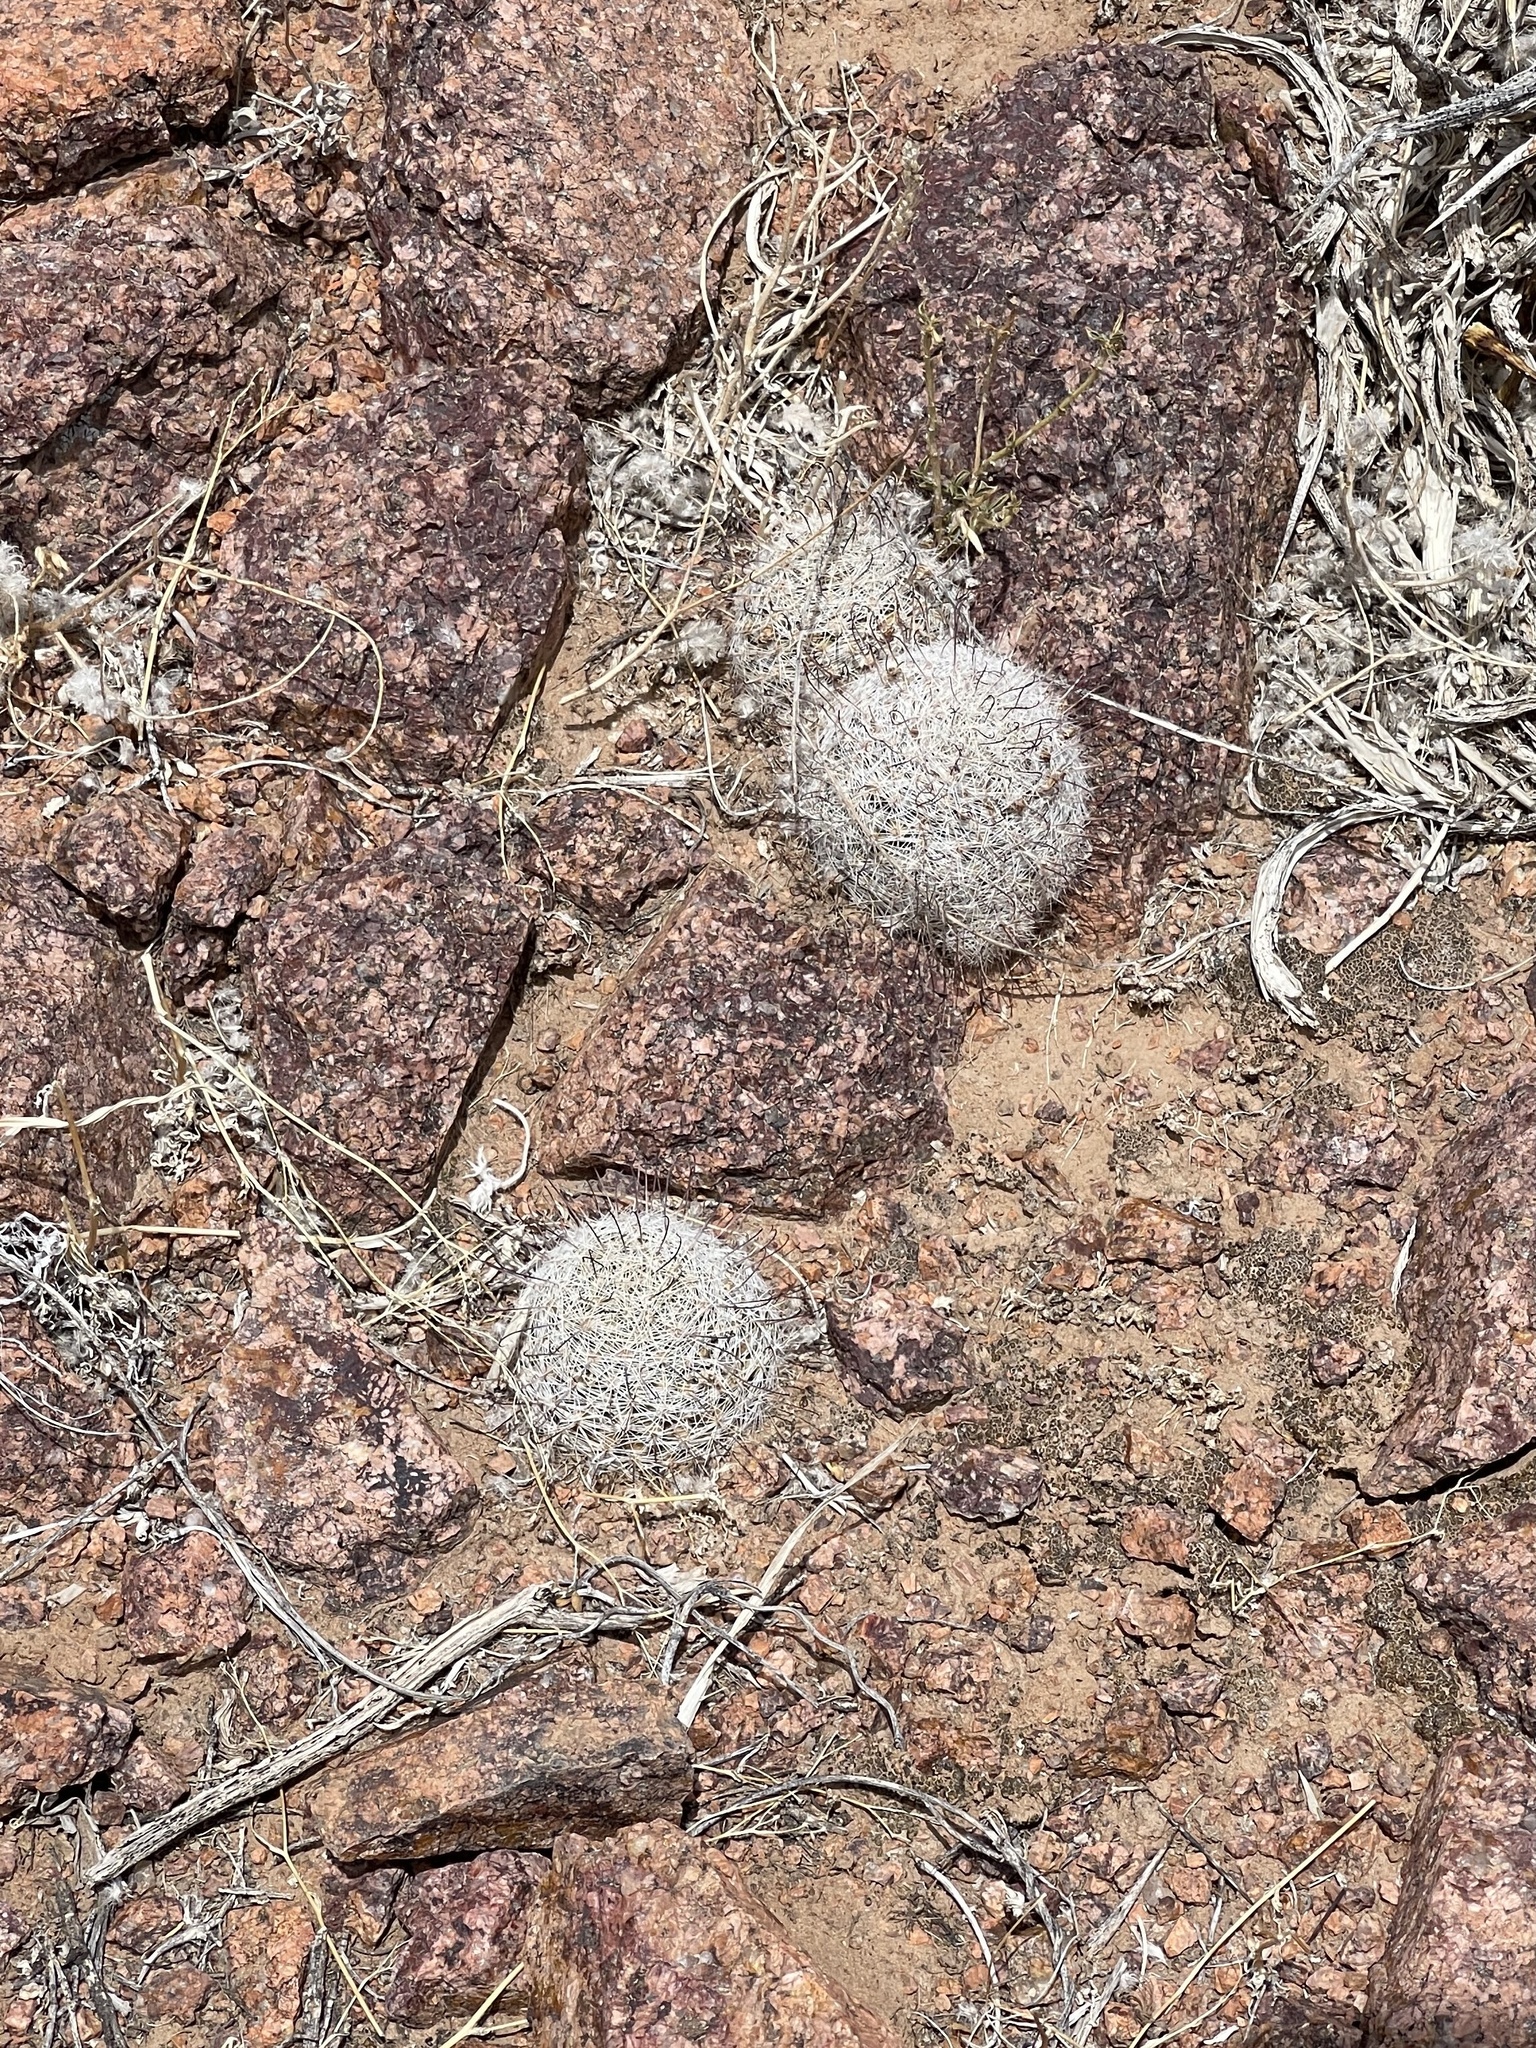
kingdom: Plantae
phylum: Tracheophyta
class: Magnoliopsida
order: Caryophyllales
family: Cactaceae
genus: Cochemiea
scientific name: Cochemiea grahamii
